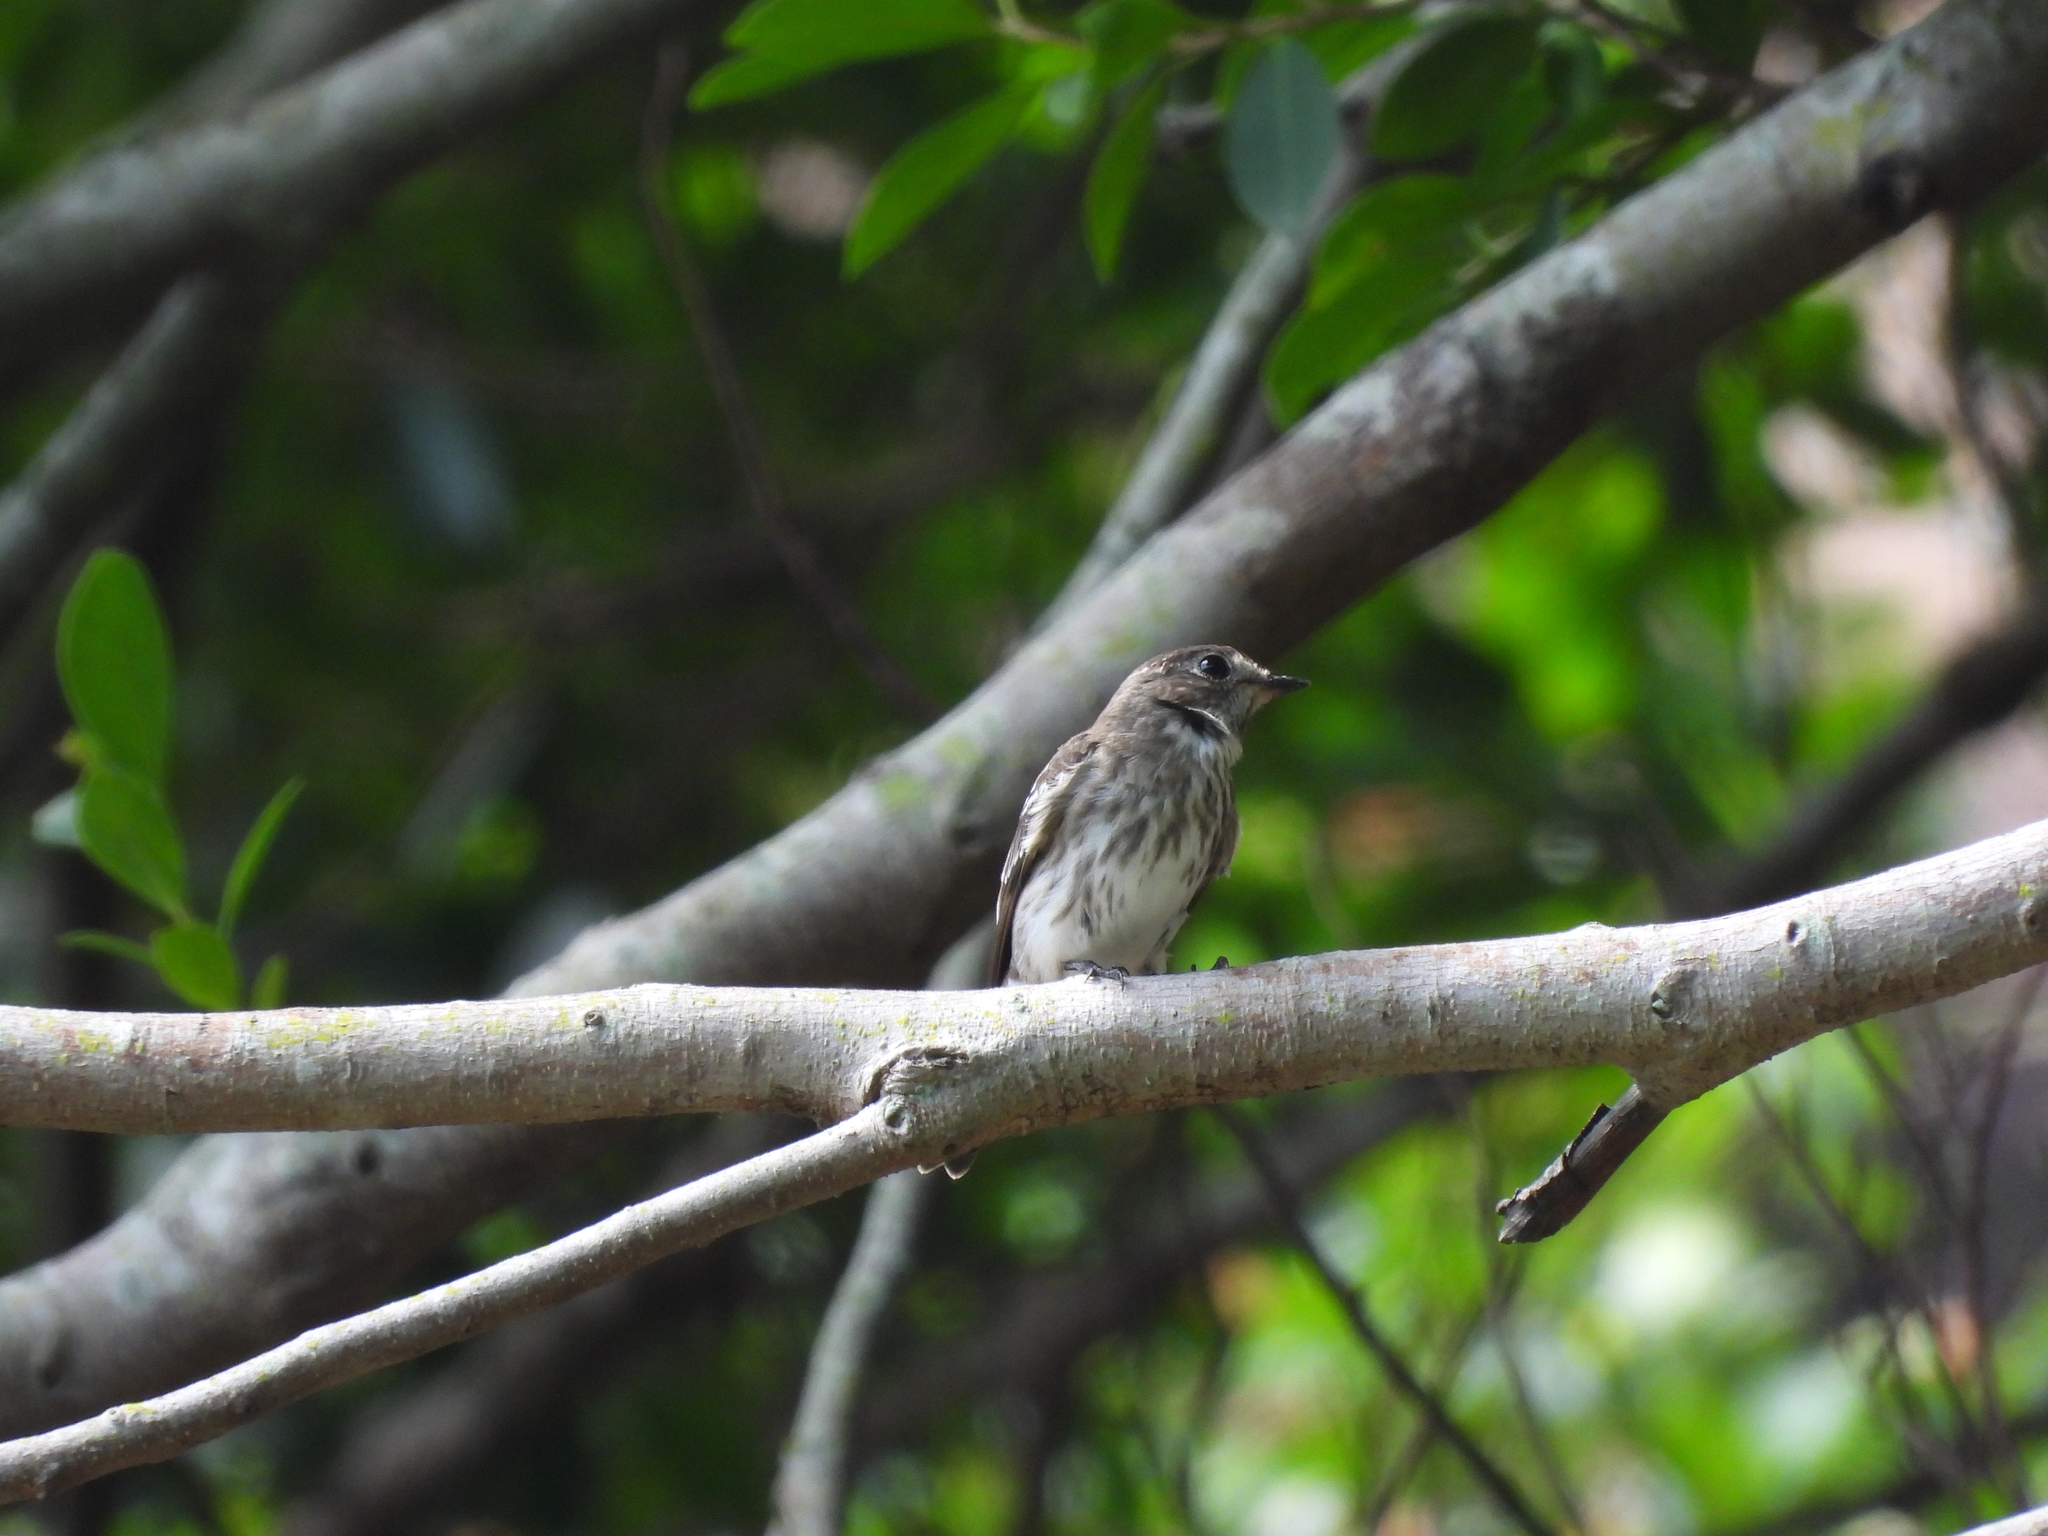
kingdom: Animalia
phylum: Chordata
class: Aves
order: Passeriformes
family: Muscicapidae
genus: Muscicapa
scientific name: Muscicapa griseisticta
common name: Gray-streaked flycatcher
